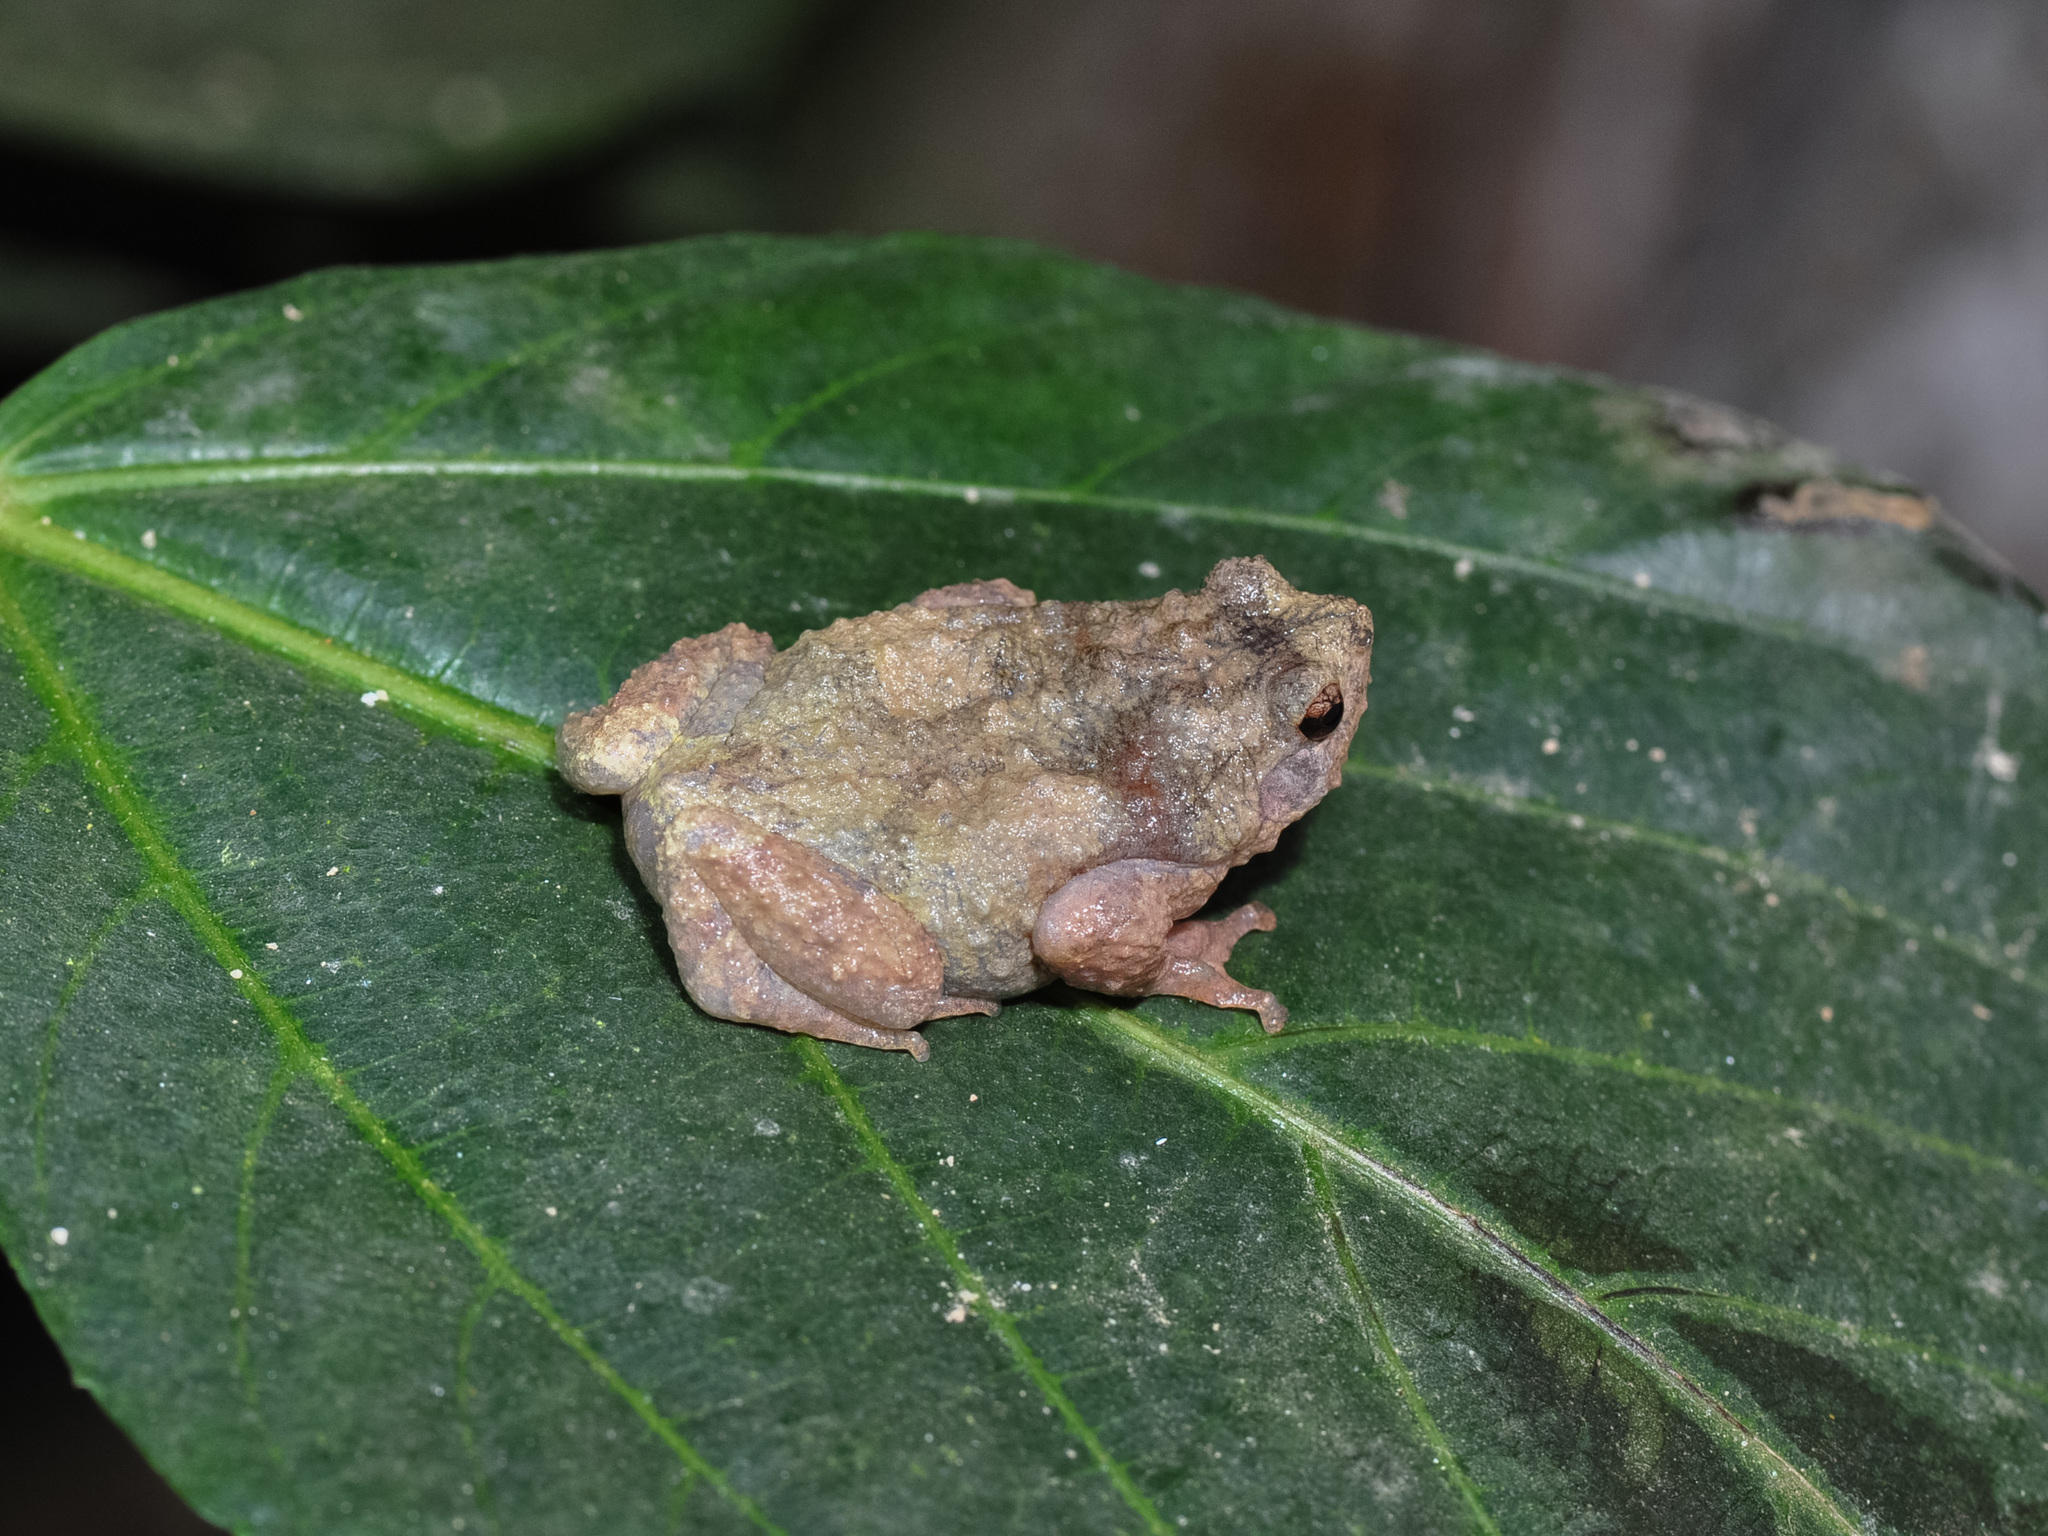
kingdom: Animalia
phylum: Chordata
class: Amphibia
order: Anura
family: Microhylidae
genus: Metaphrynella
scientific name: Metaphrynella pollicaris
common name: Malaysian treehole frog
